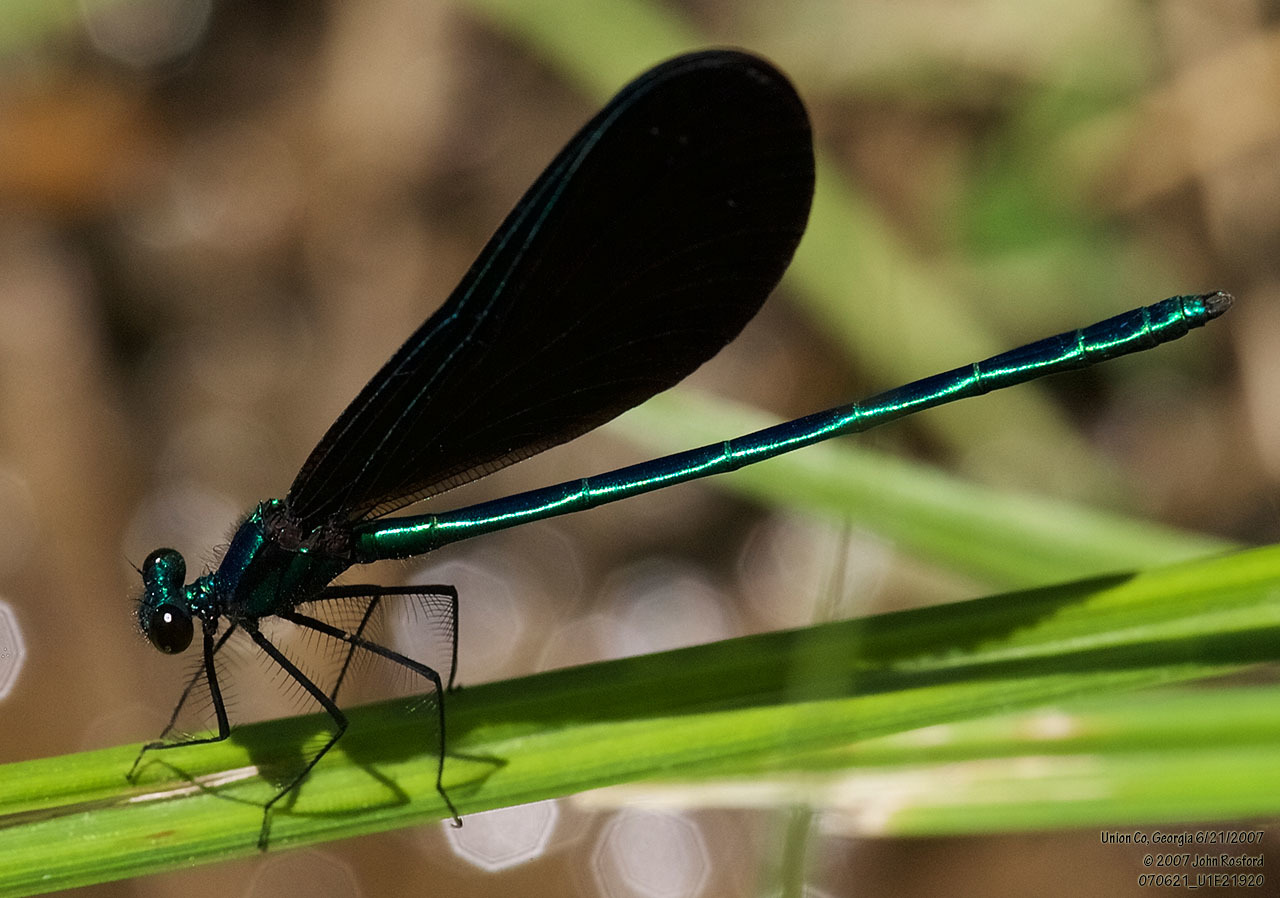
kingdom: Animalia
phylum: Arthropoda
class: Insecta
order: Odonata
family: Calopterygidae
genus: Calopteryx
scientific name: Calopteryx maculata
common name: Ebony jewelwing
